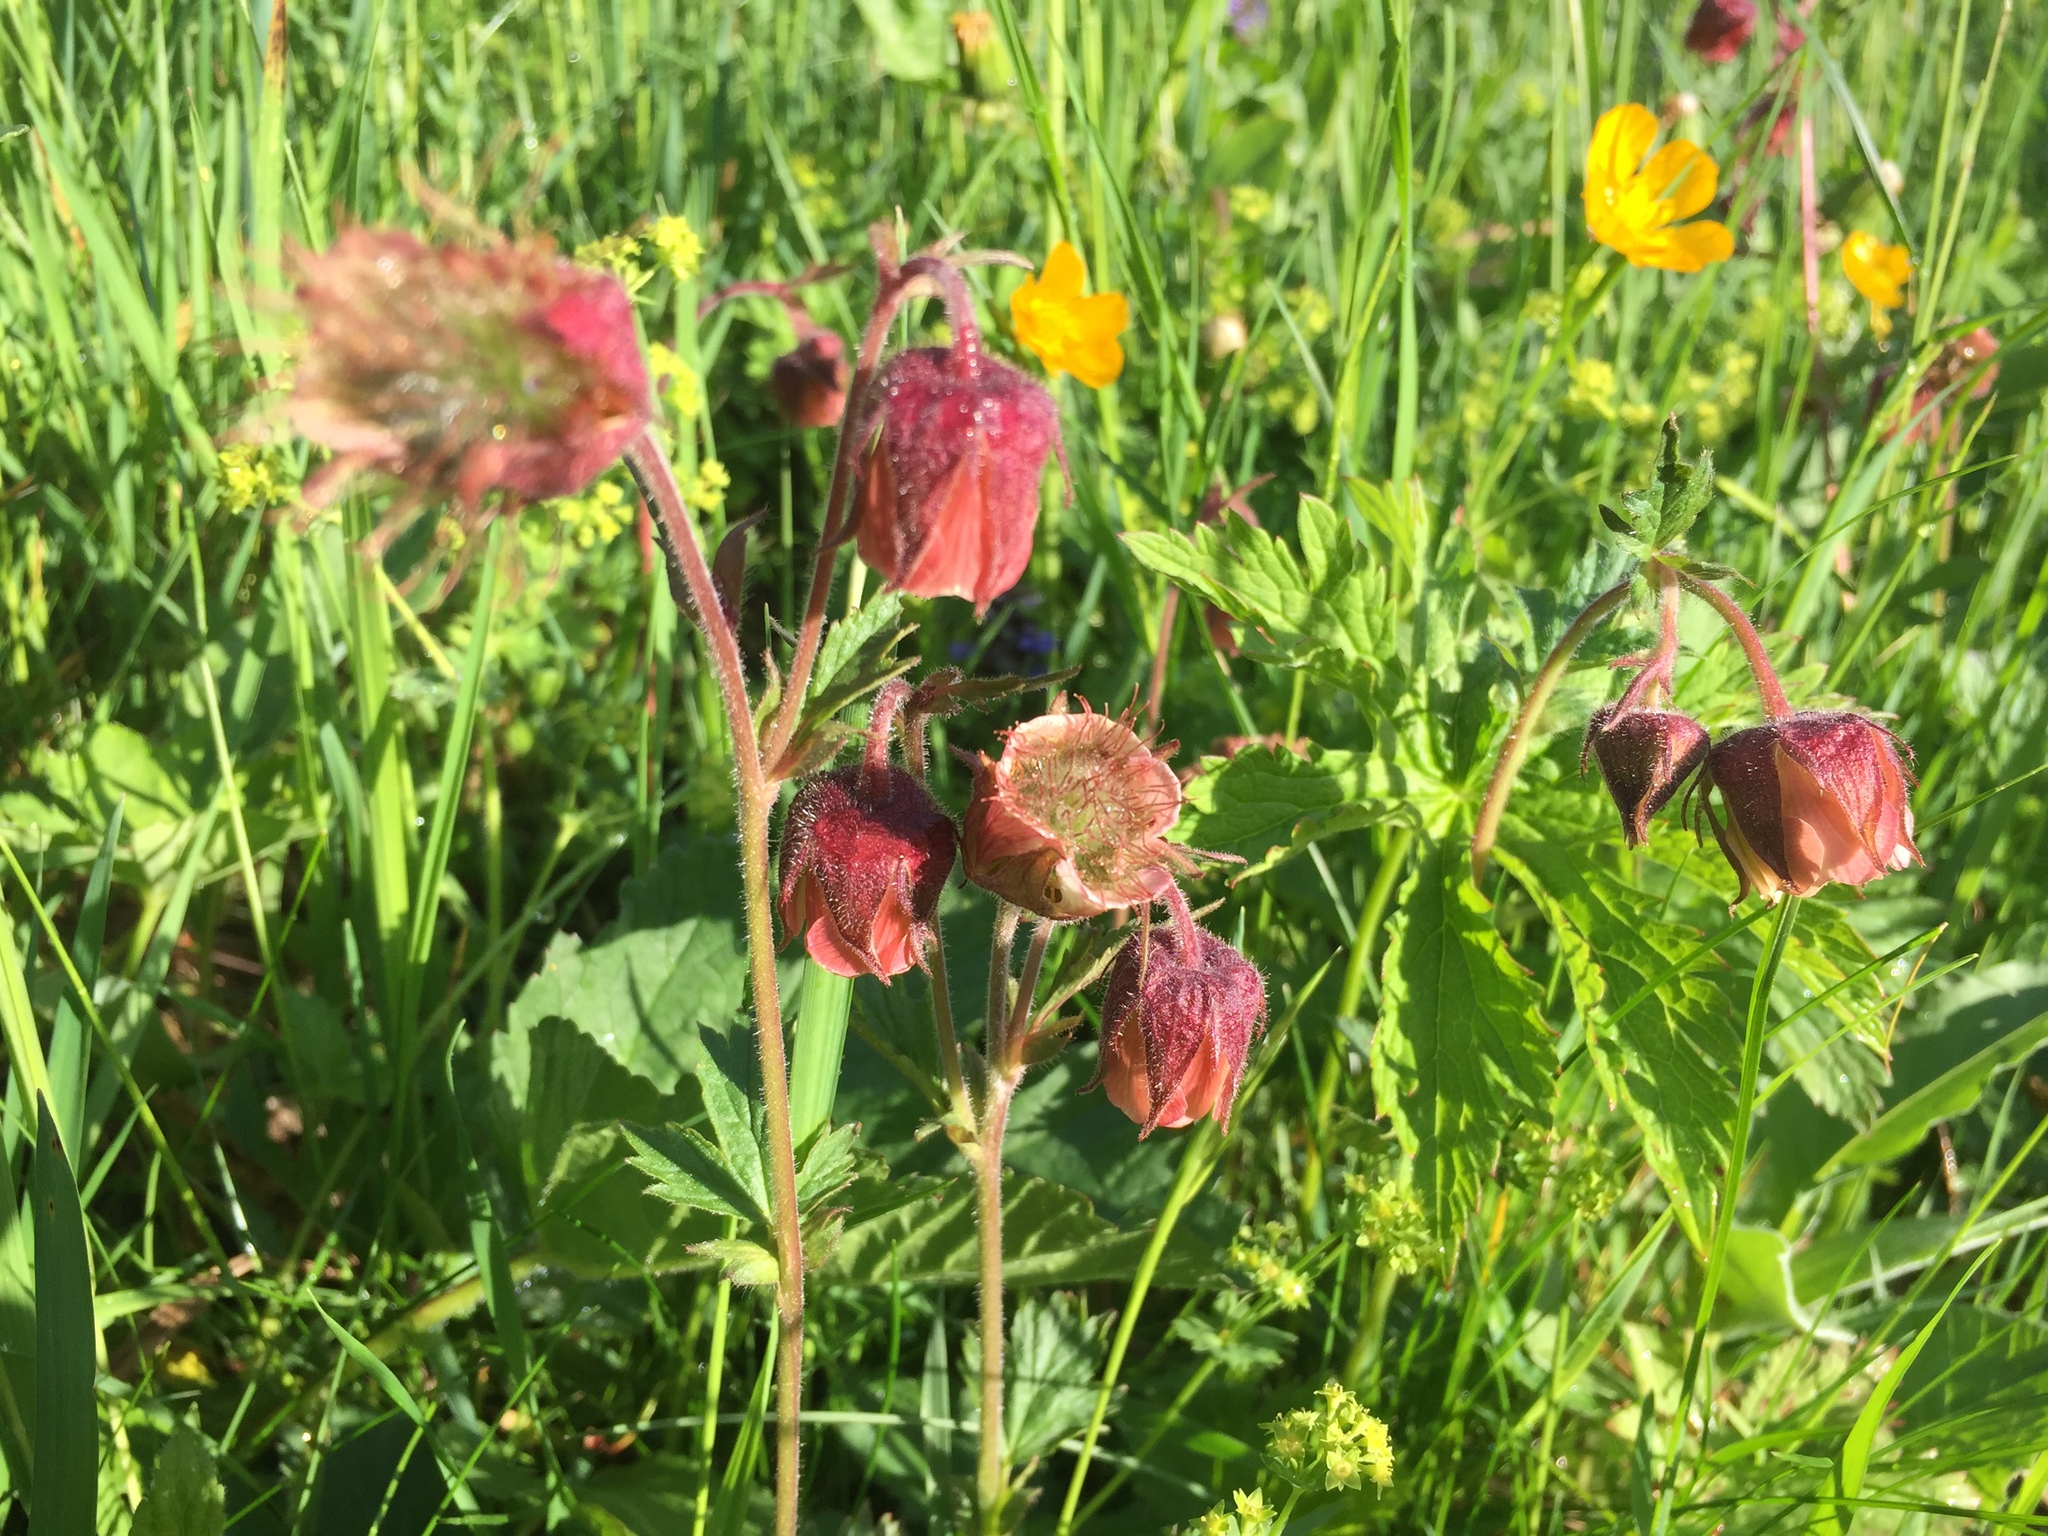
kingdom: Plantae
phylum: Tracheophyta
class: Magnoliopsida
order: Rosales
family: Rosaceae
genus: Geum
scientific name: Geum rivale
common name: Water avens
